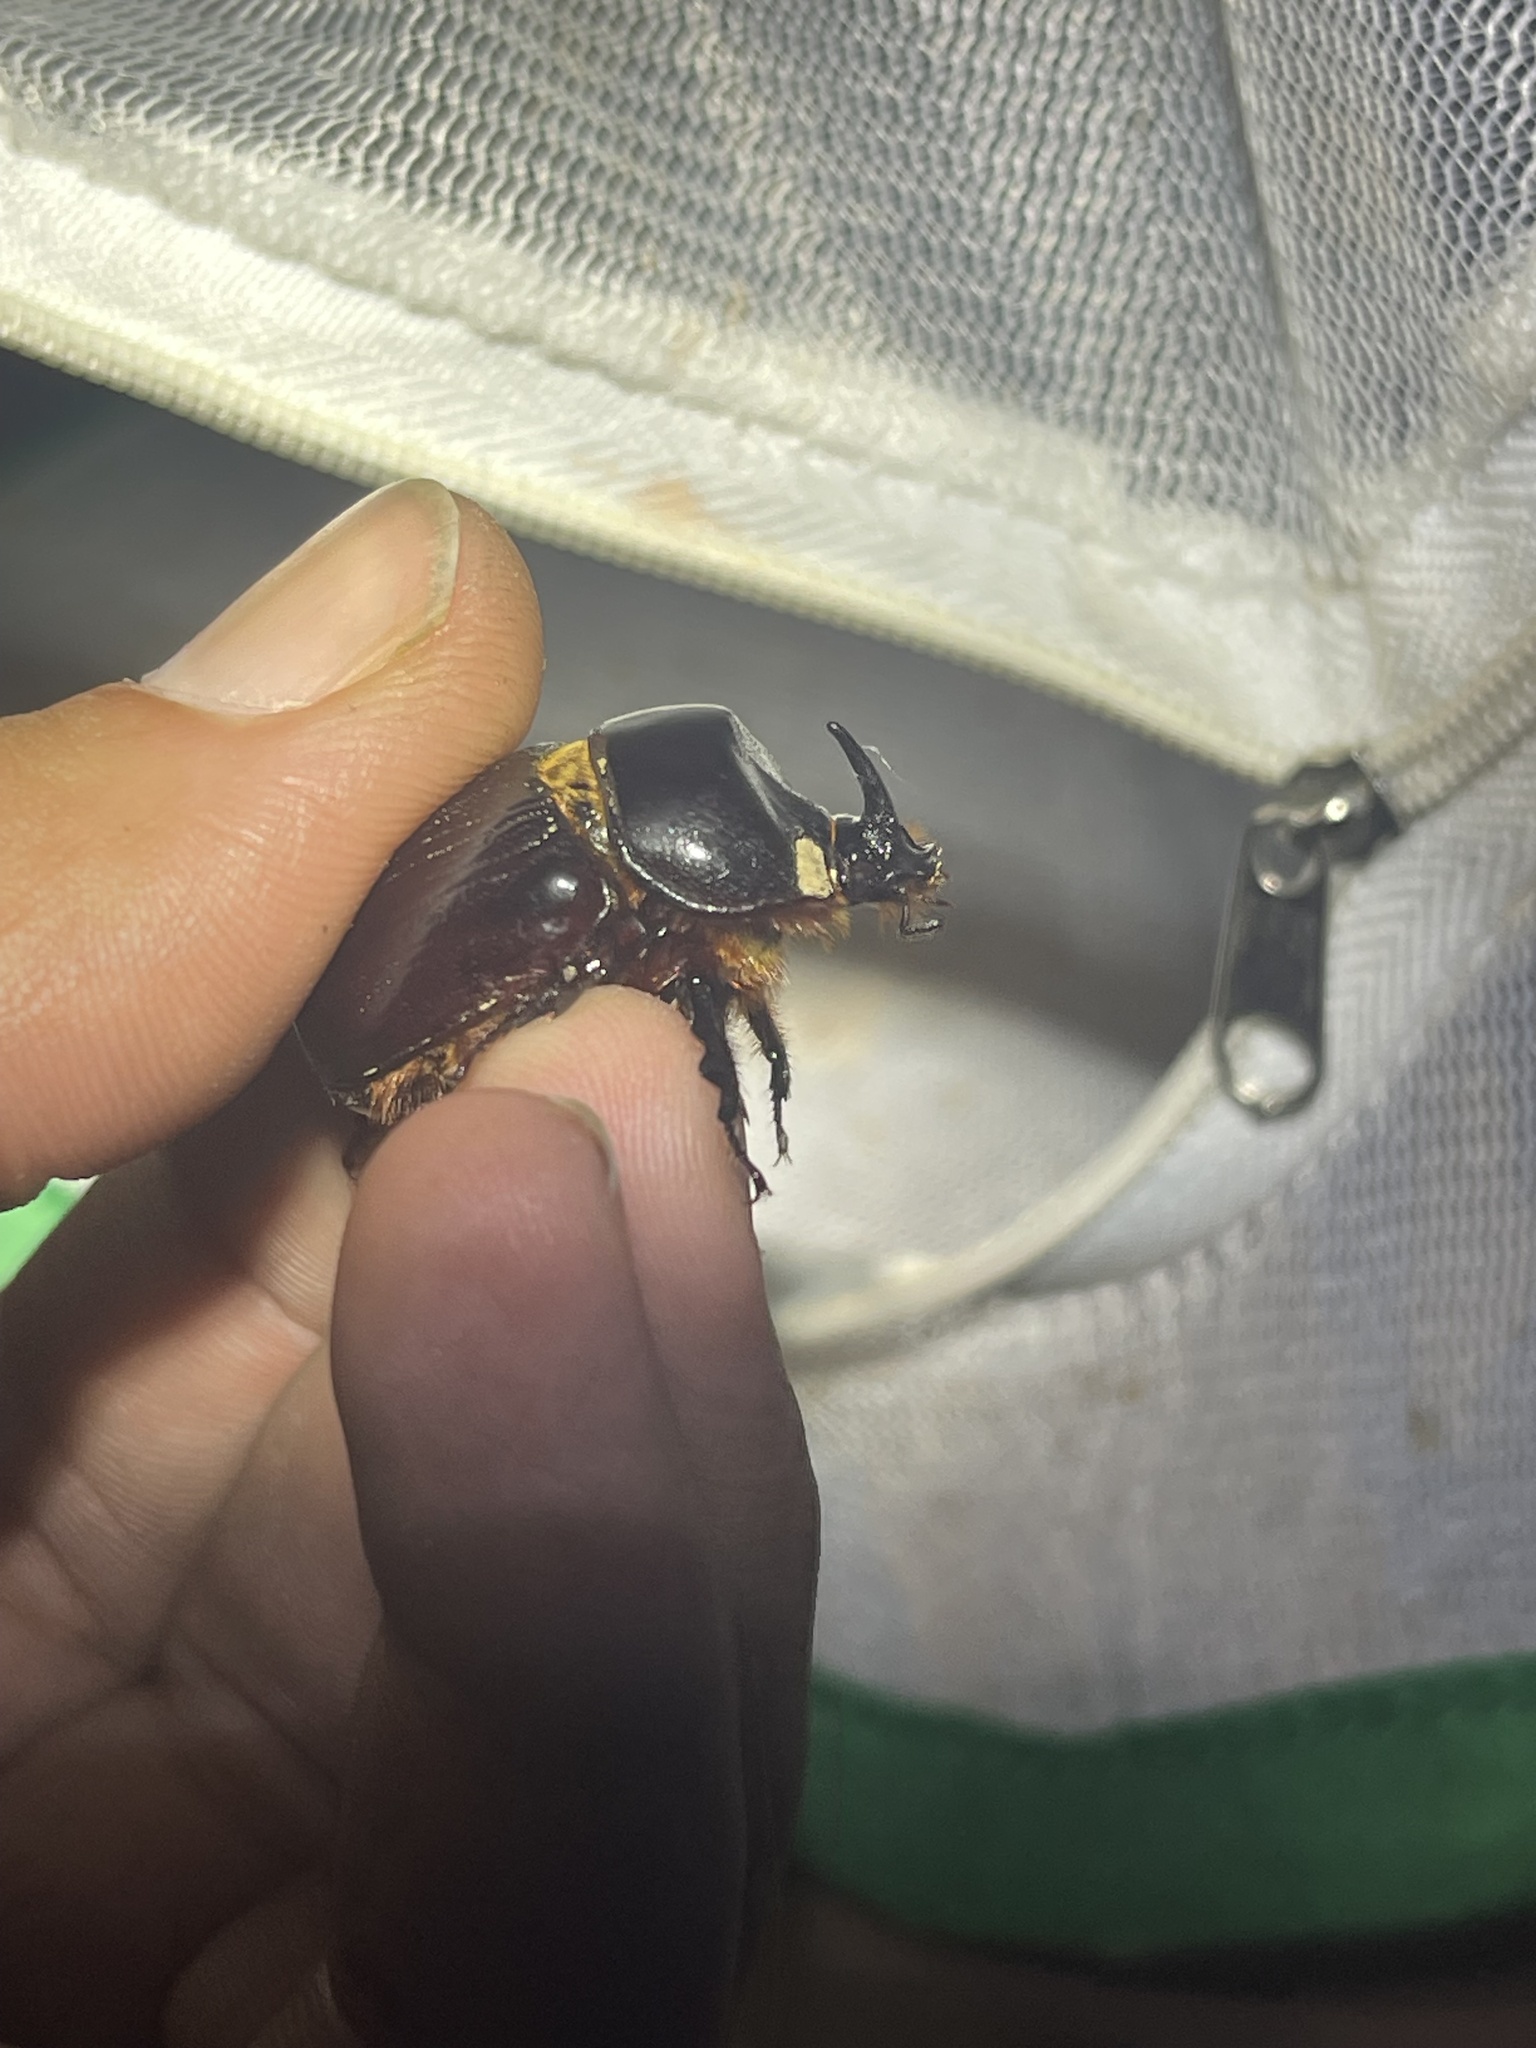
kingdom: Animalia
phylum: Arthropoda
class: Insecta
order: Coleoptera
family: Scarabaeidae
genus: Xyloryctes
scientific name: Xyloryctes jamaicensis
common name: Eastern rhinoceros beetle
